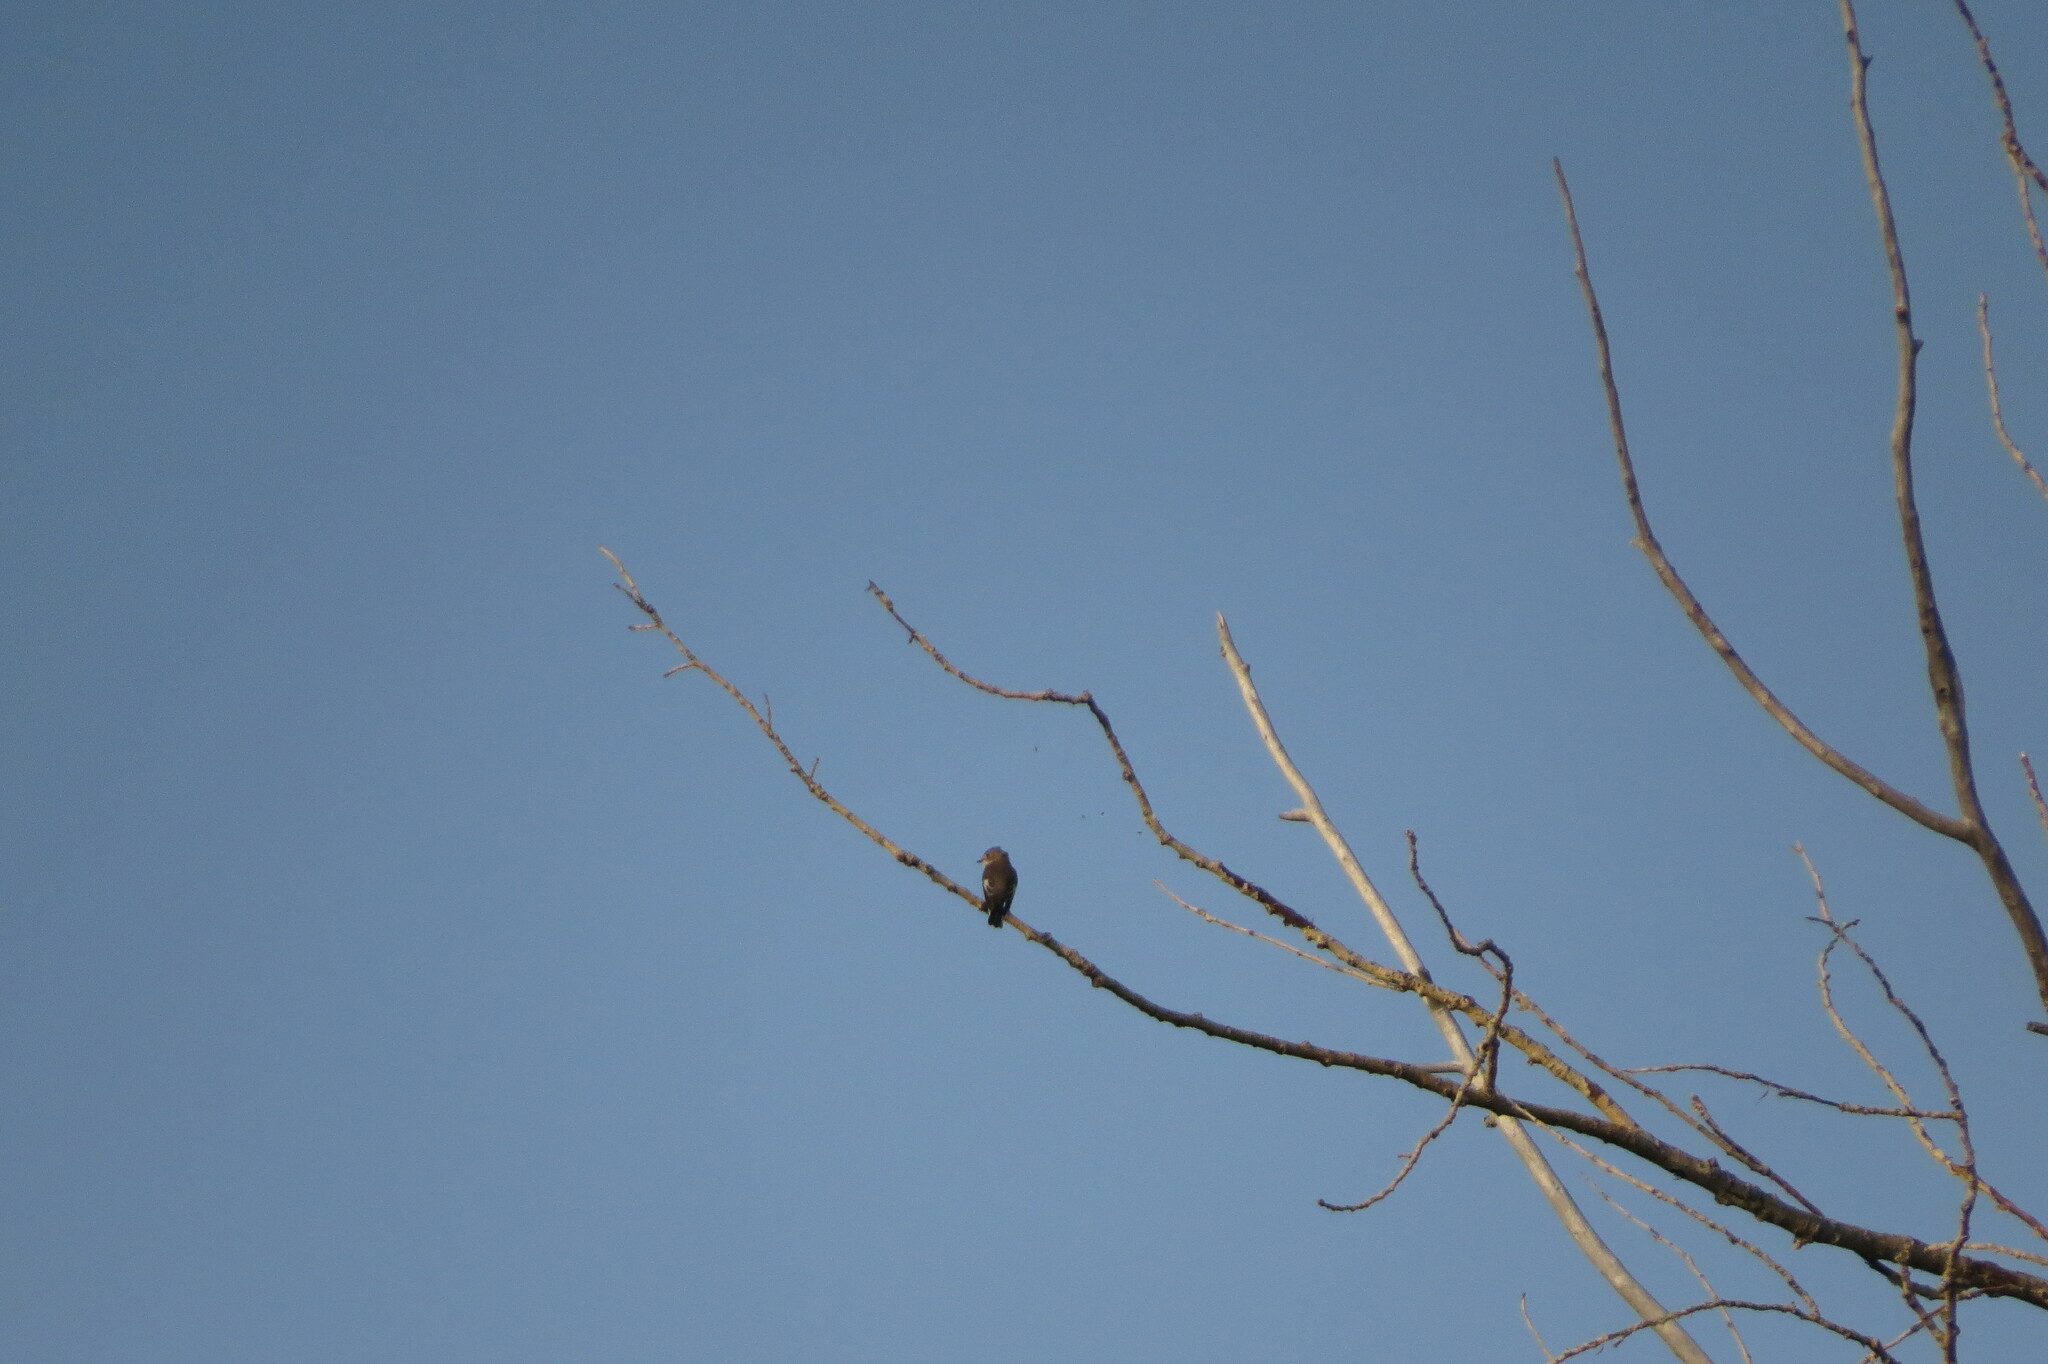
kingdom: Animalia
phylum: Chordata
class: Aves
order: Passeriformes
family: Muscicapidae
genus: Ficedula
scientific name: Ficedula hypoleuca
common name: European pied flycatcher
